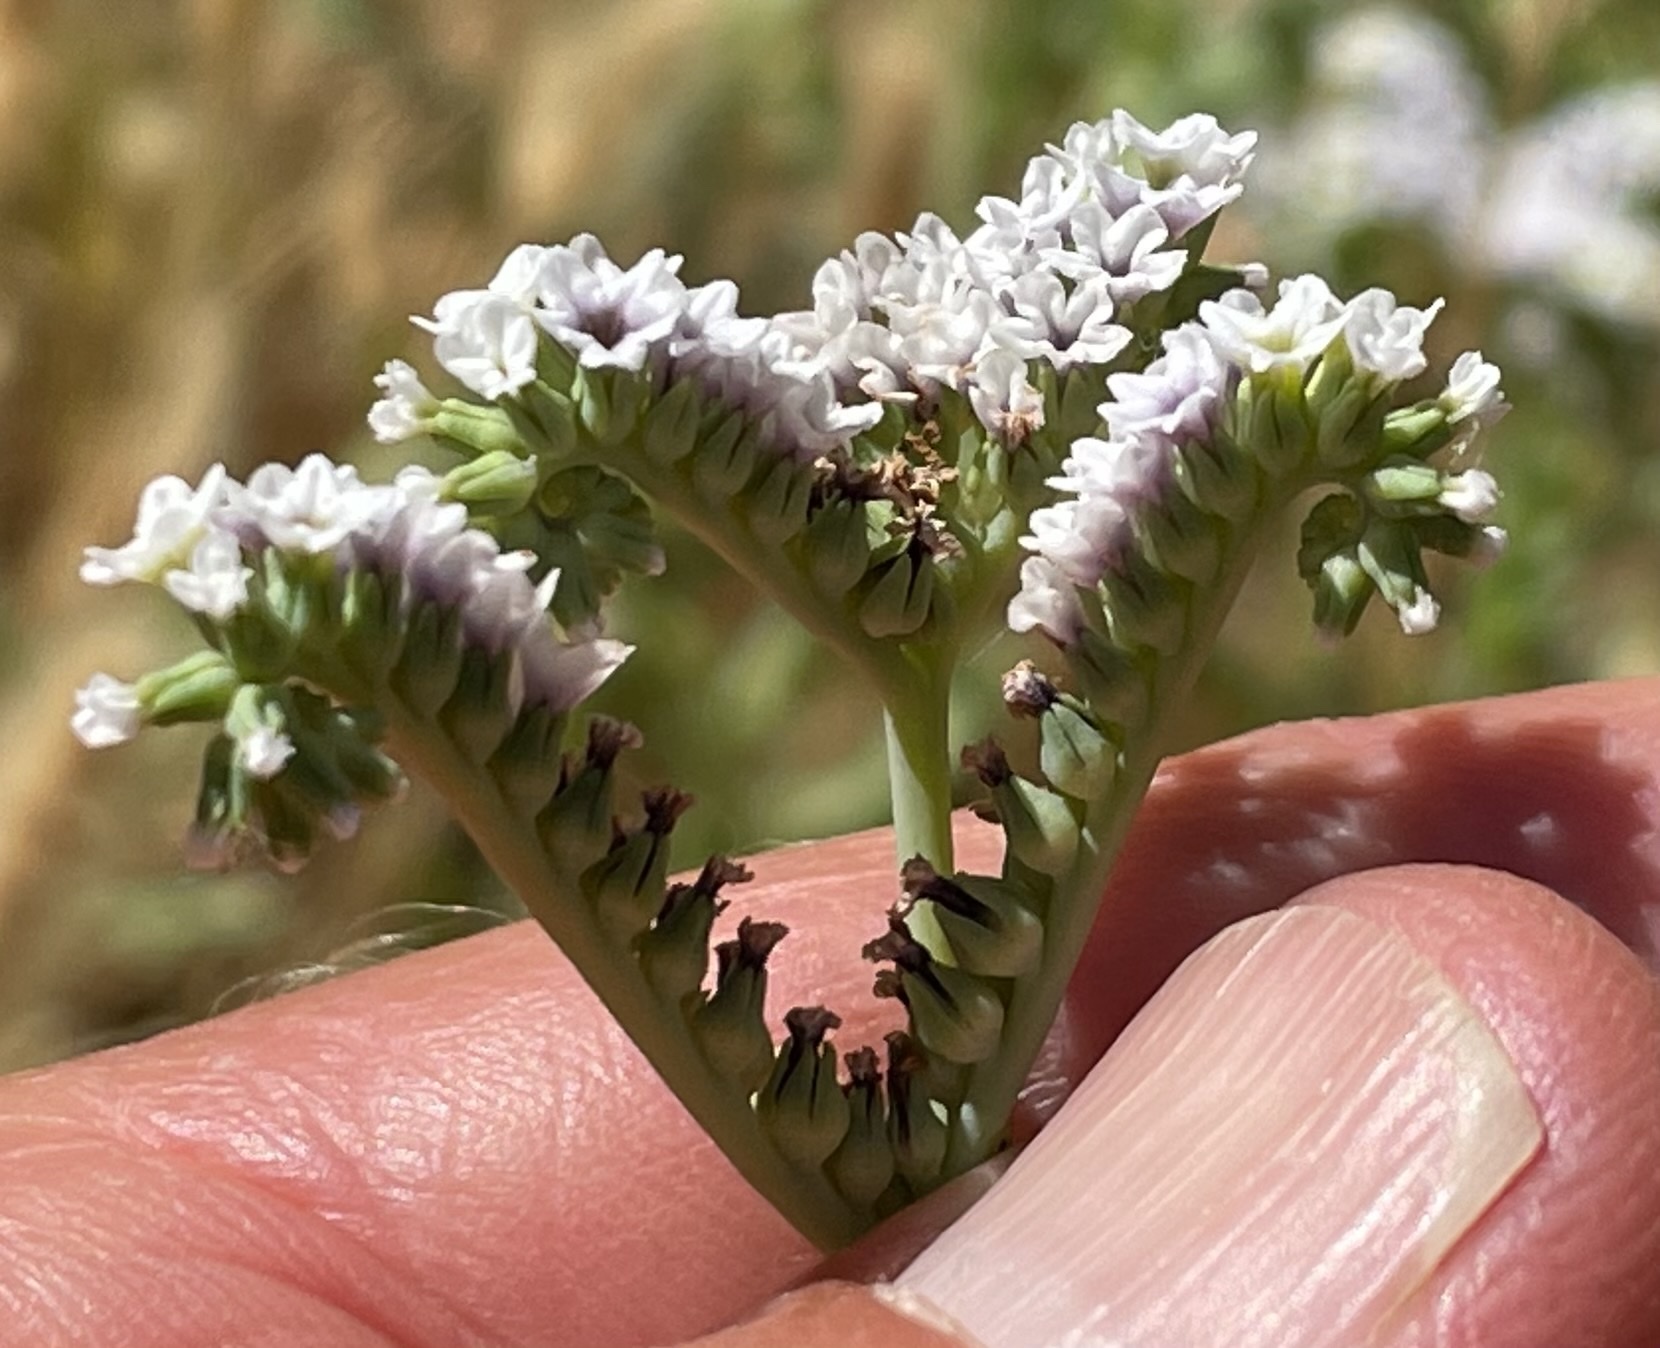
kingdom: Plantae
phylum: Tracheophyta
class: Magnoliopsida
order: Boraginales
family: Heliotropiaceae
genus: Heliotropium
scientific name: Heliotropium curassavicum
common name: Seaside heliotrope
